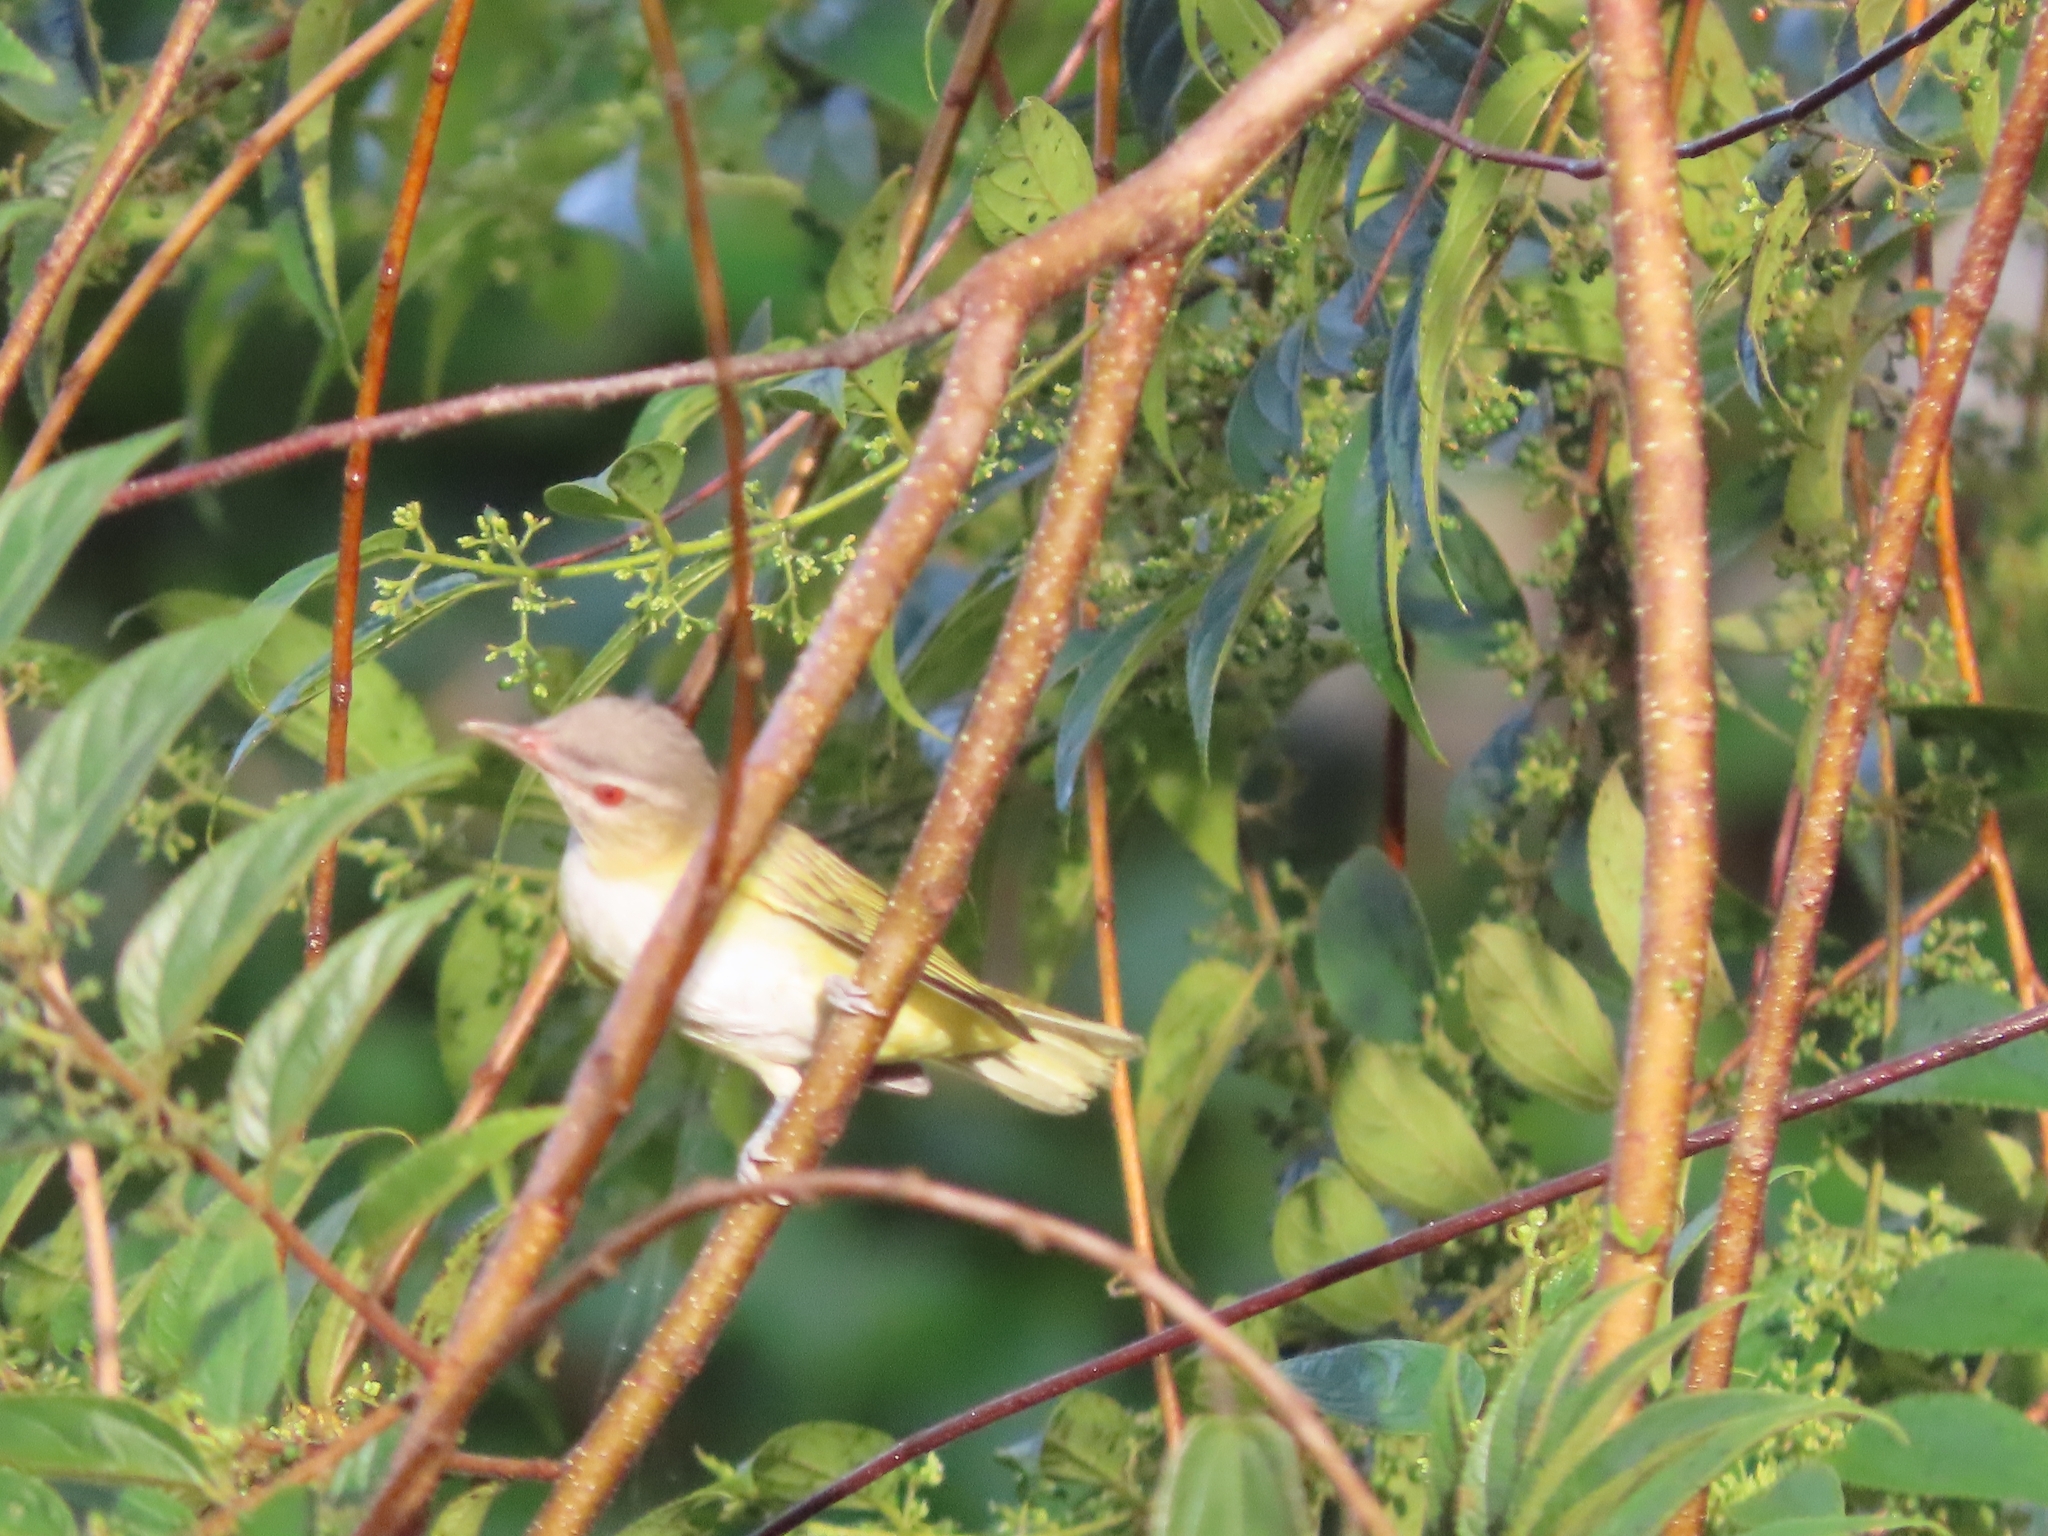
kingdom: Animalia
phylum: Chordata
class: Aves
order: Passeriformes
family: Vireonidae
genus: Vireo
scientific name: Vireo flavoviridis
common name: Yellow-green vireo
